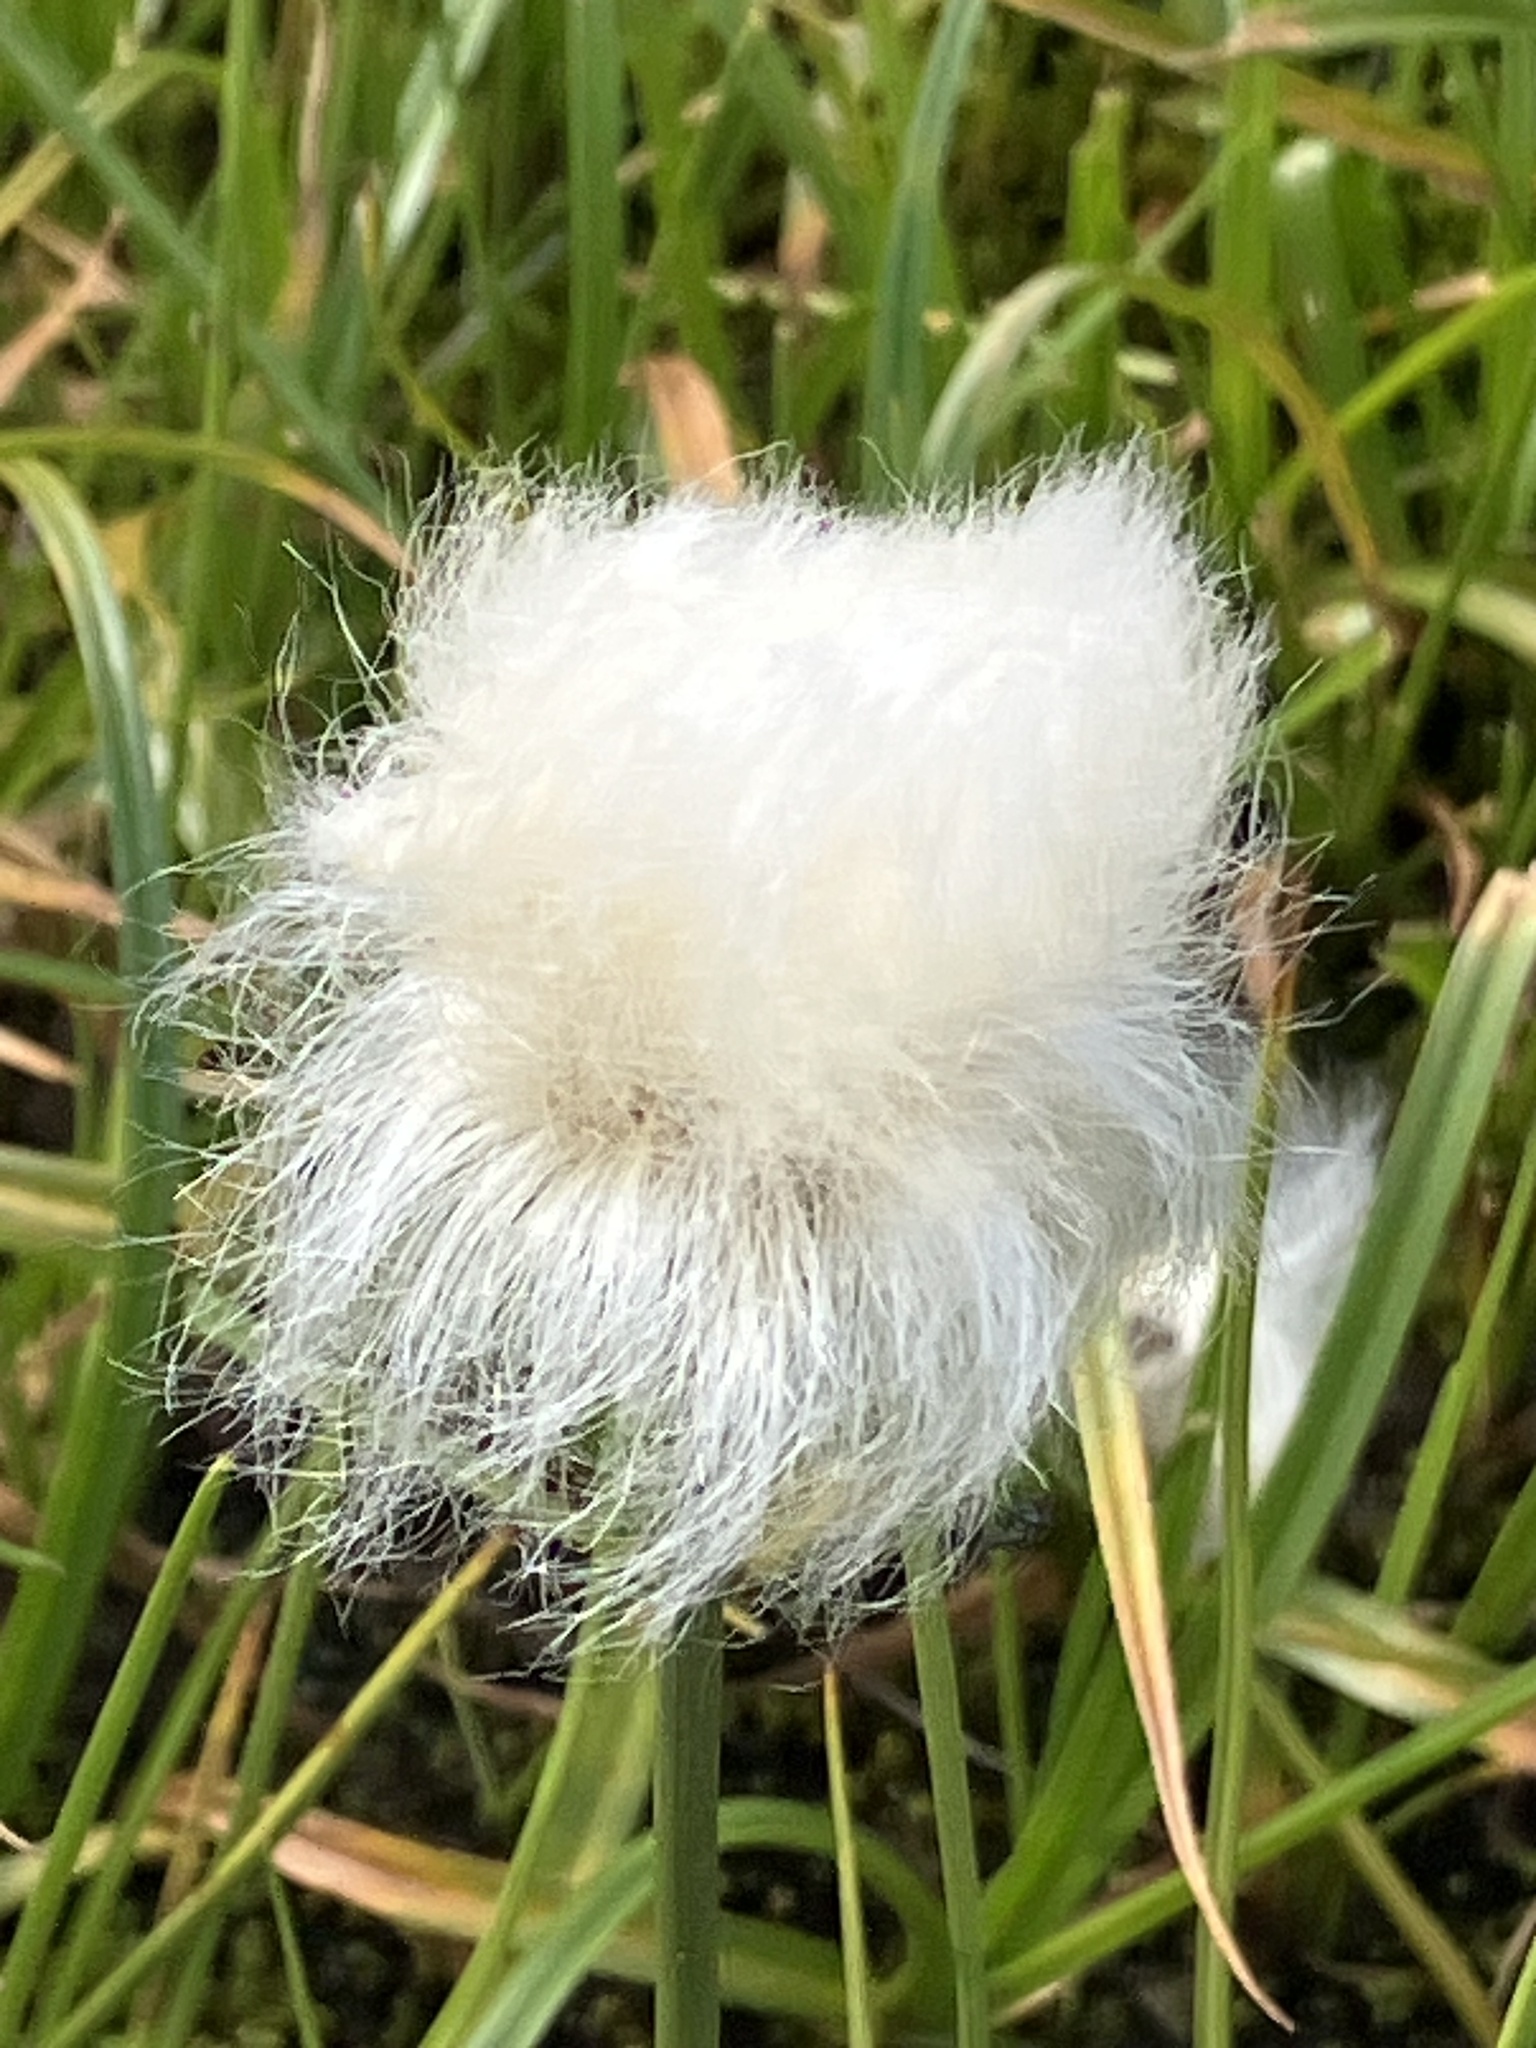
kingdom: Plantae
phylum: Tracheophyta
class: Liliopsida
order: Poales
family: Cyperaceae
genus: Eriophorum
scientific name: Eriophorum scheuchzeri
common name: Scheuchzer's cottongrass
